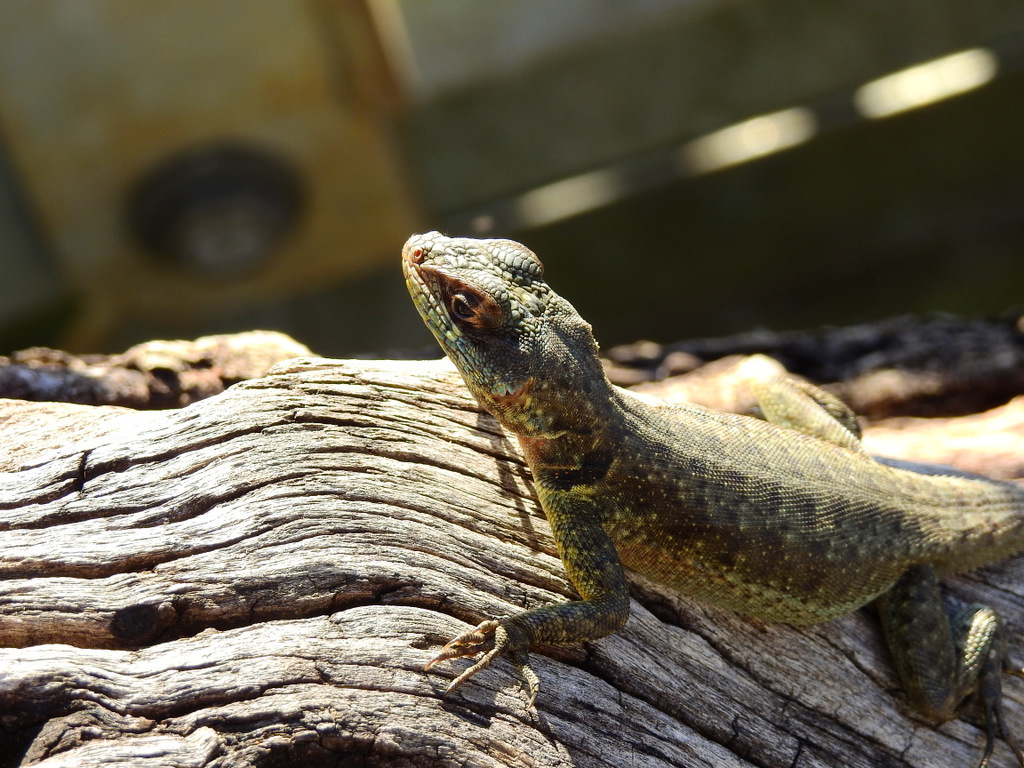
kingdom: Animalia
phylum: Chordata
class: Squamata
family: Tropiduridae
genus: Tropidurus
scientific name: Tropidurus catalanensis
